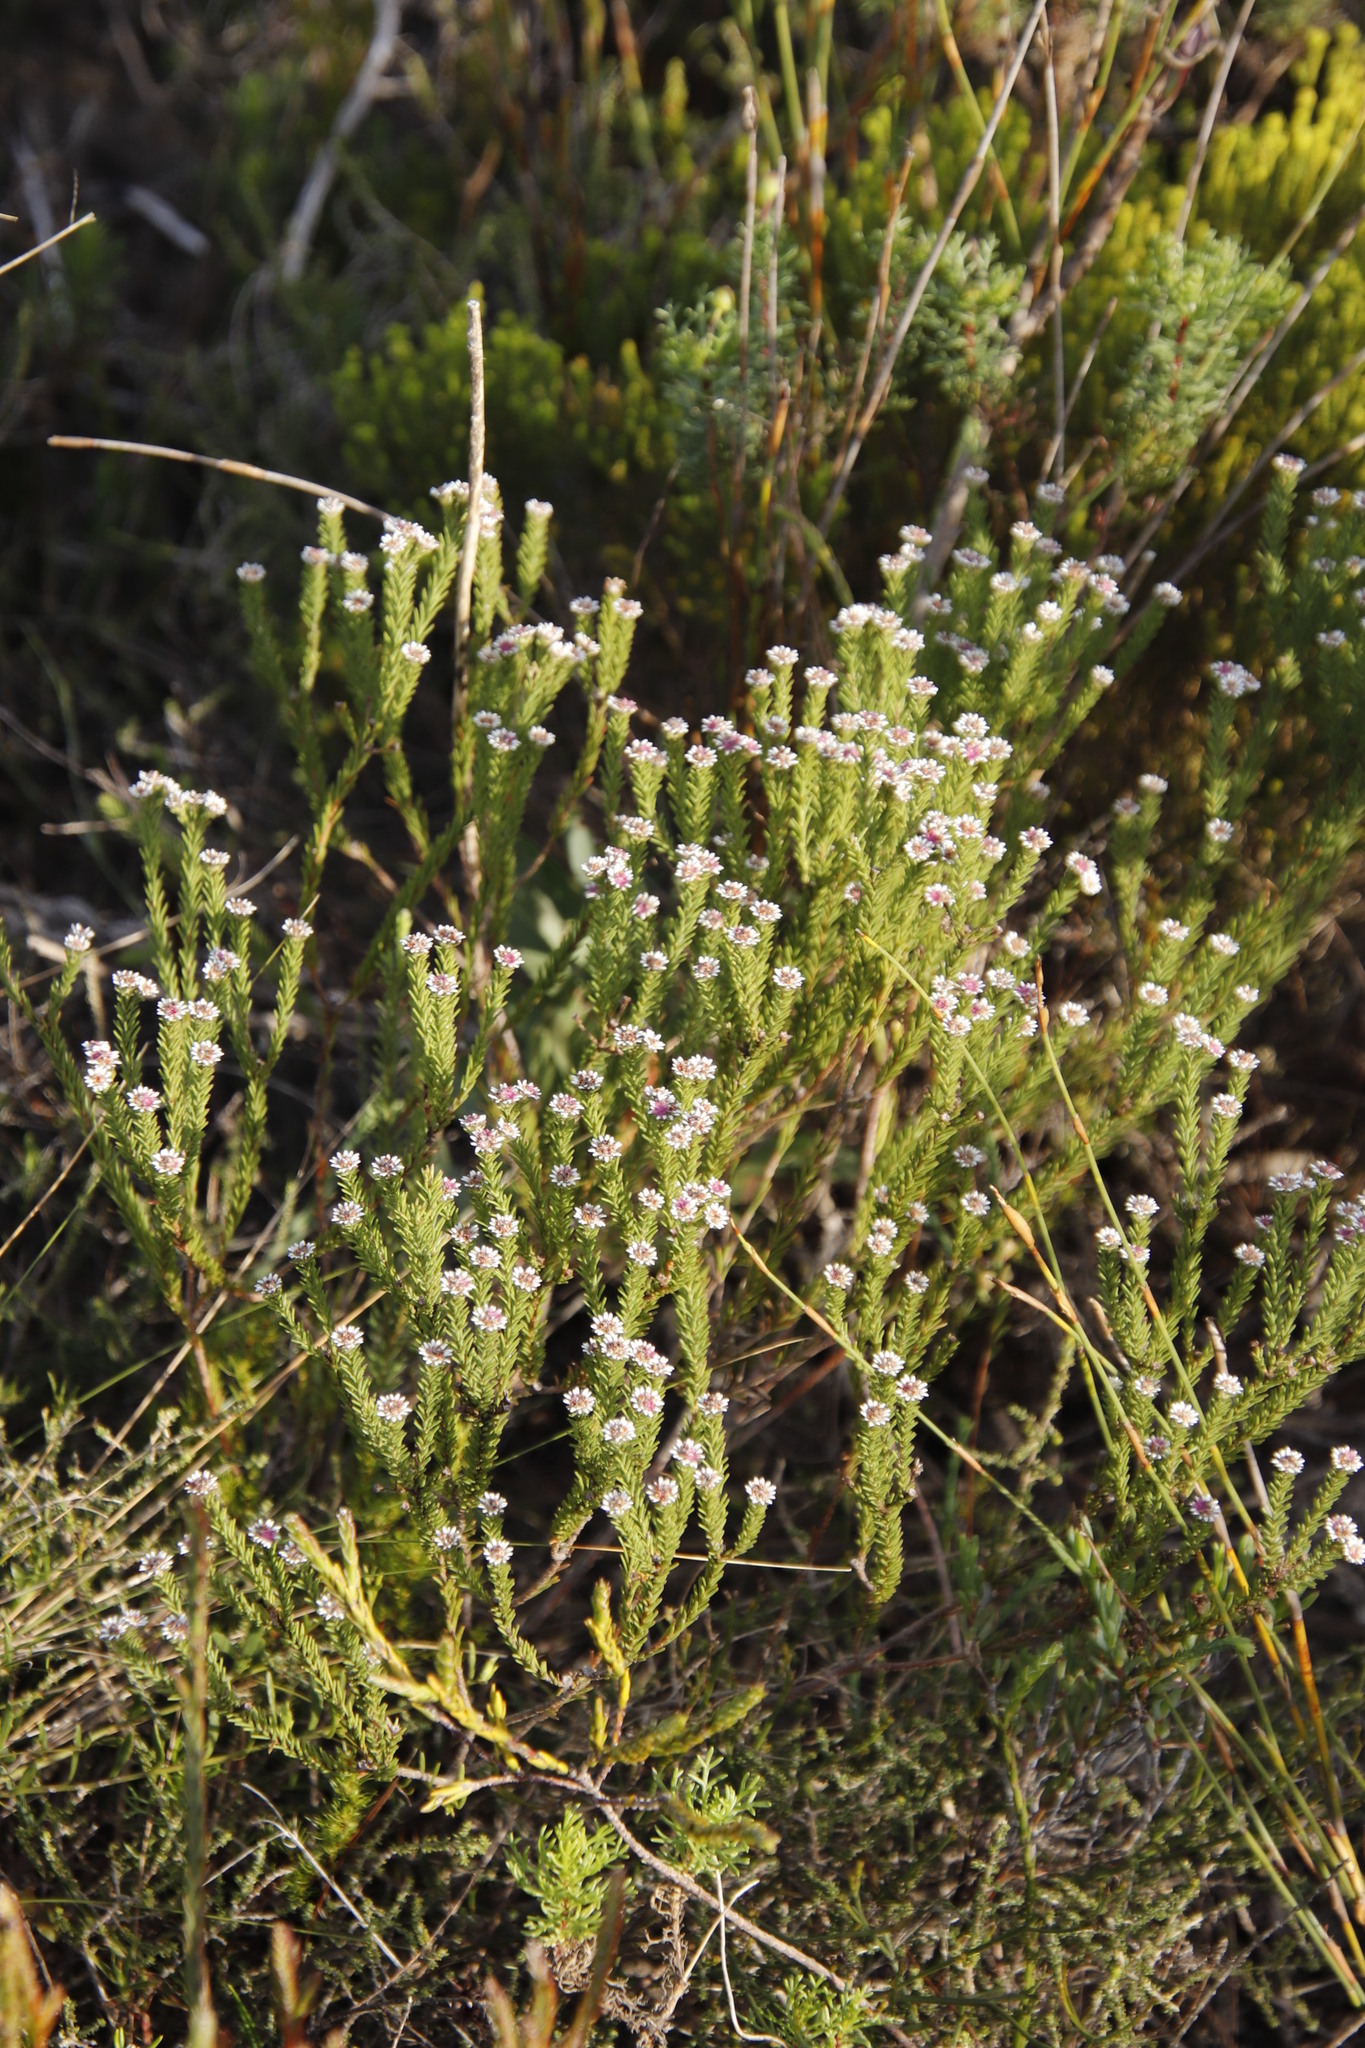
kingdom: Plantae
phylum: Tracheophyta
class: Magnoliopsida
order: Bruniales
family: Bruniaceae
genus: Staavia
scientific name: Staavia radiata
